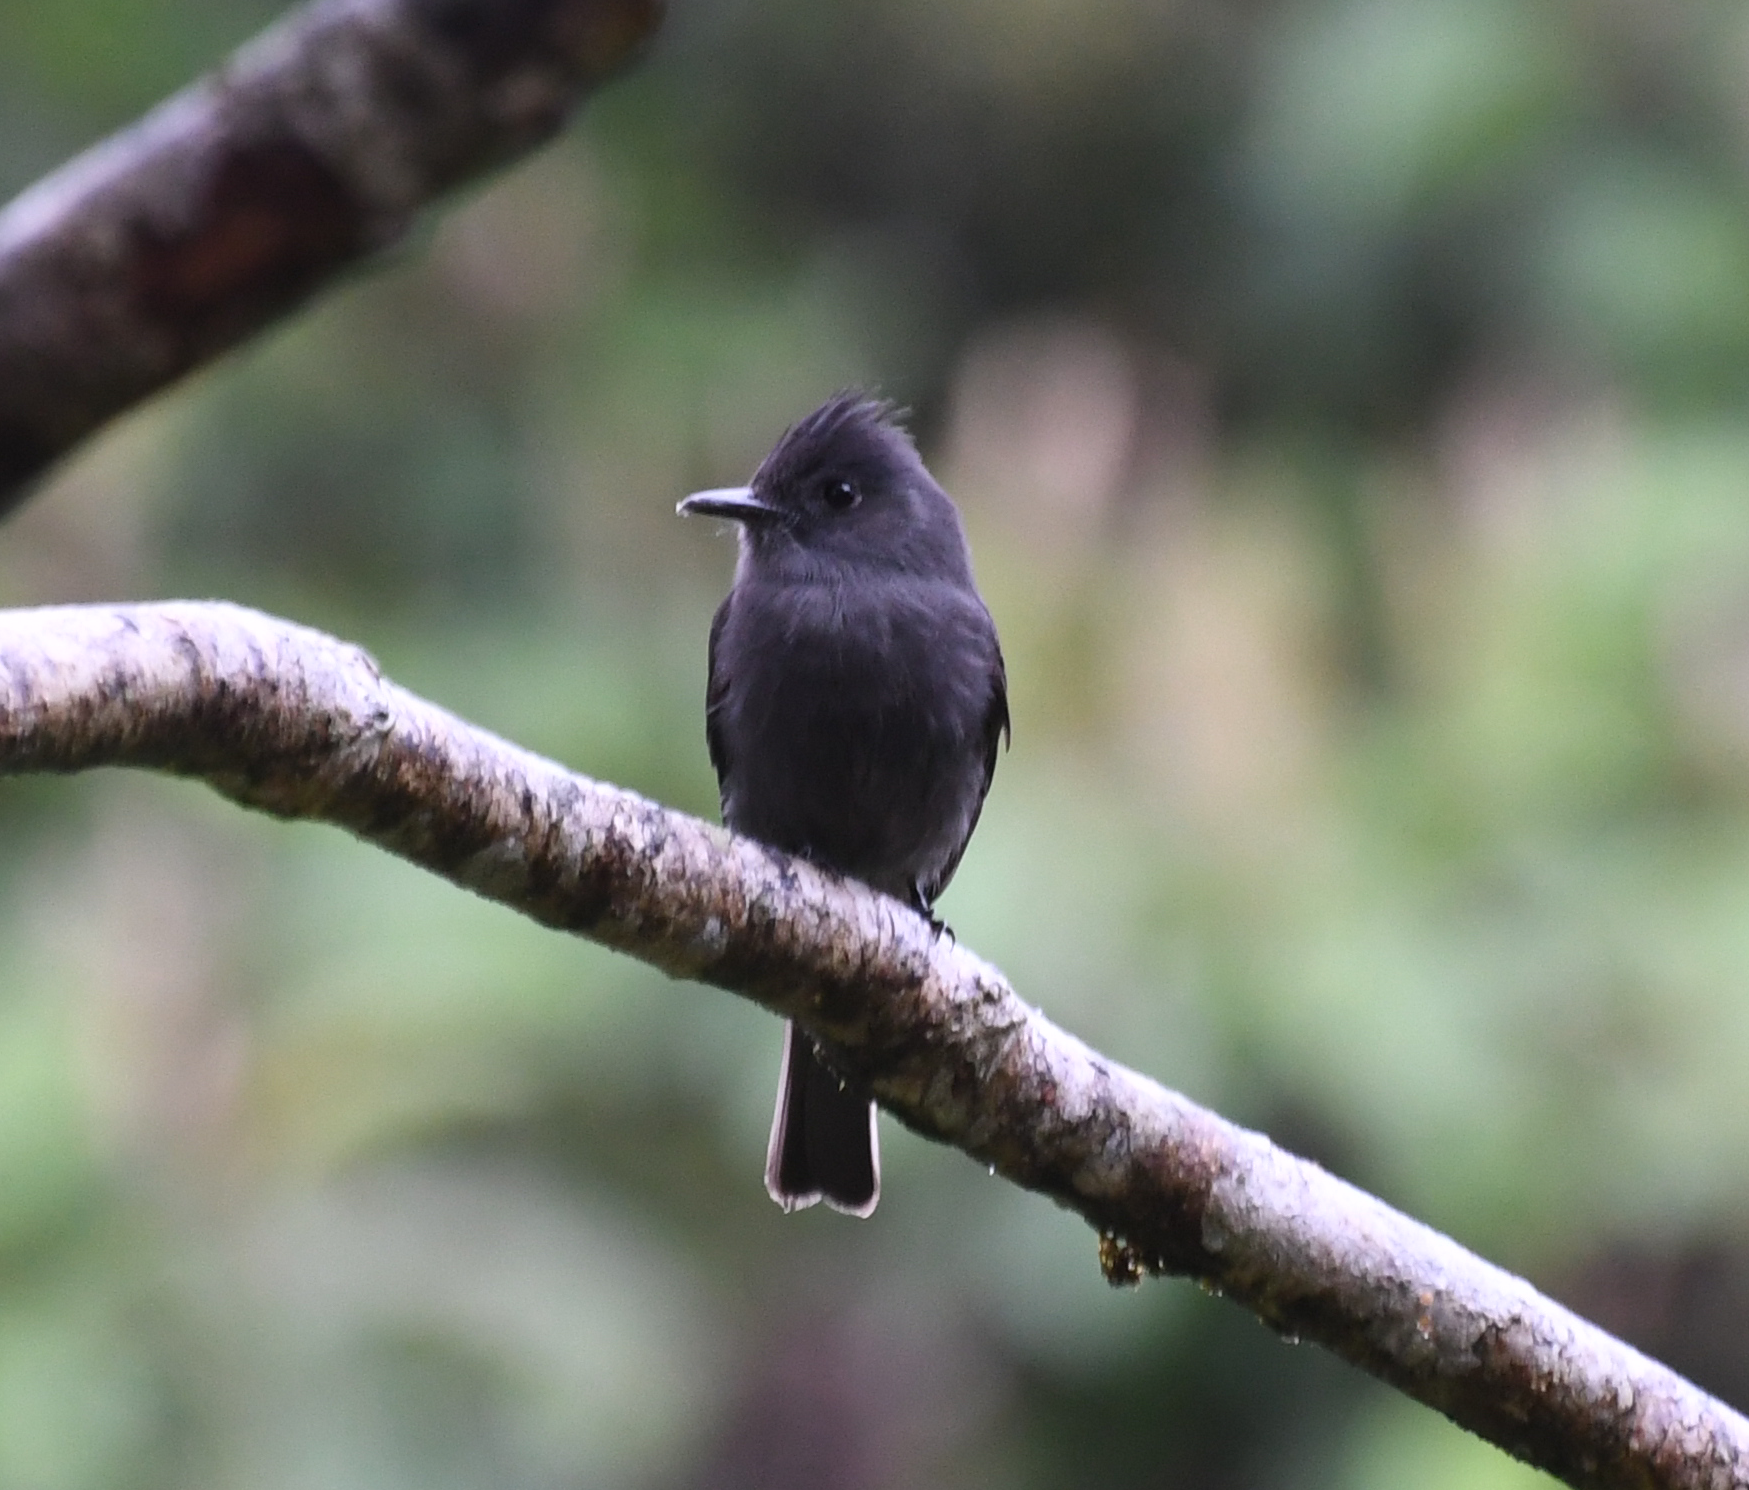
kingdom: Animalia
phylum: Chordata
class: Aves
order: Passeriformes
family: Tyrannidae
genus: Contopus
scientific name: Contopus fumigatus
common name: Smoke-colored pewee
